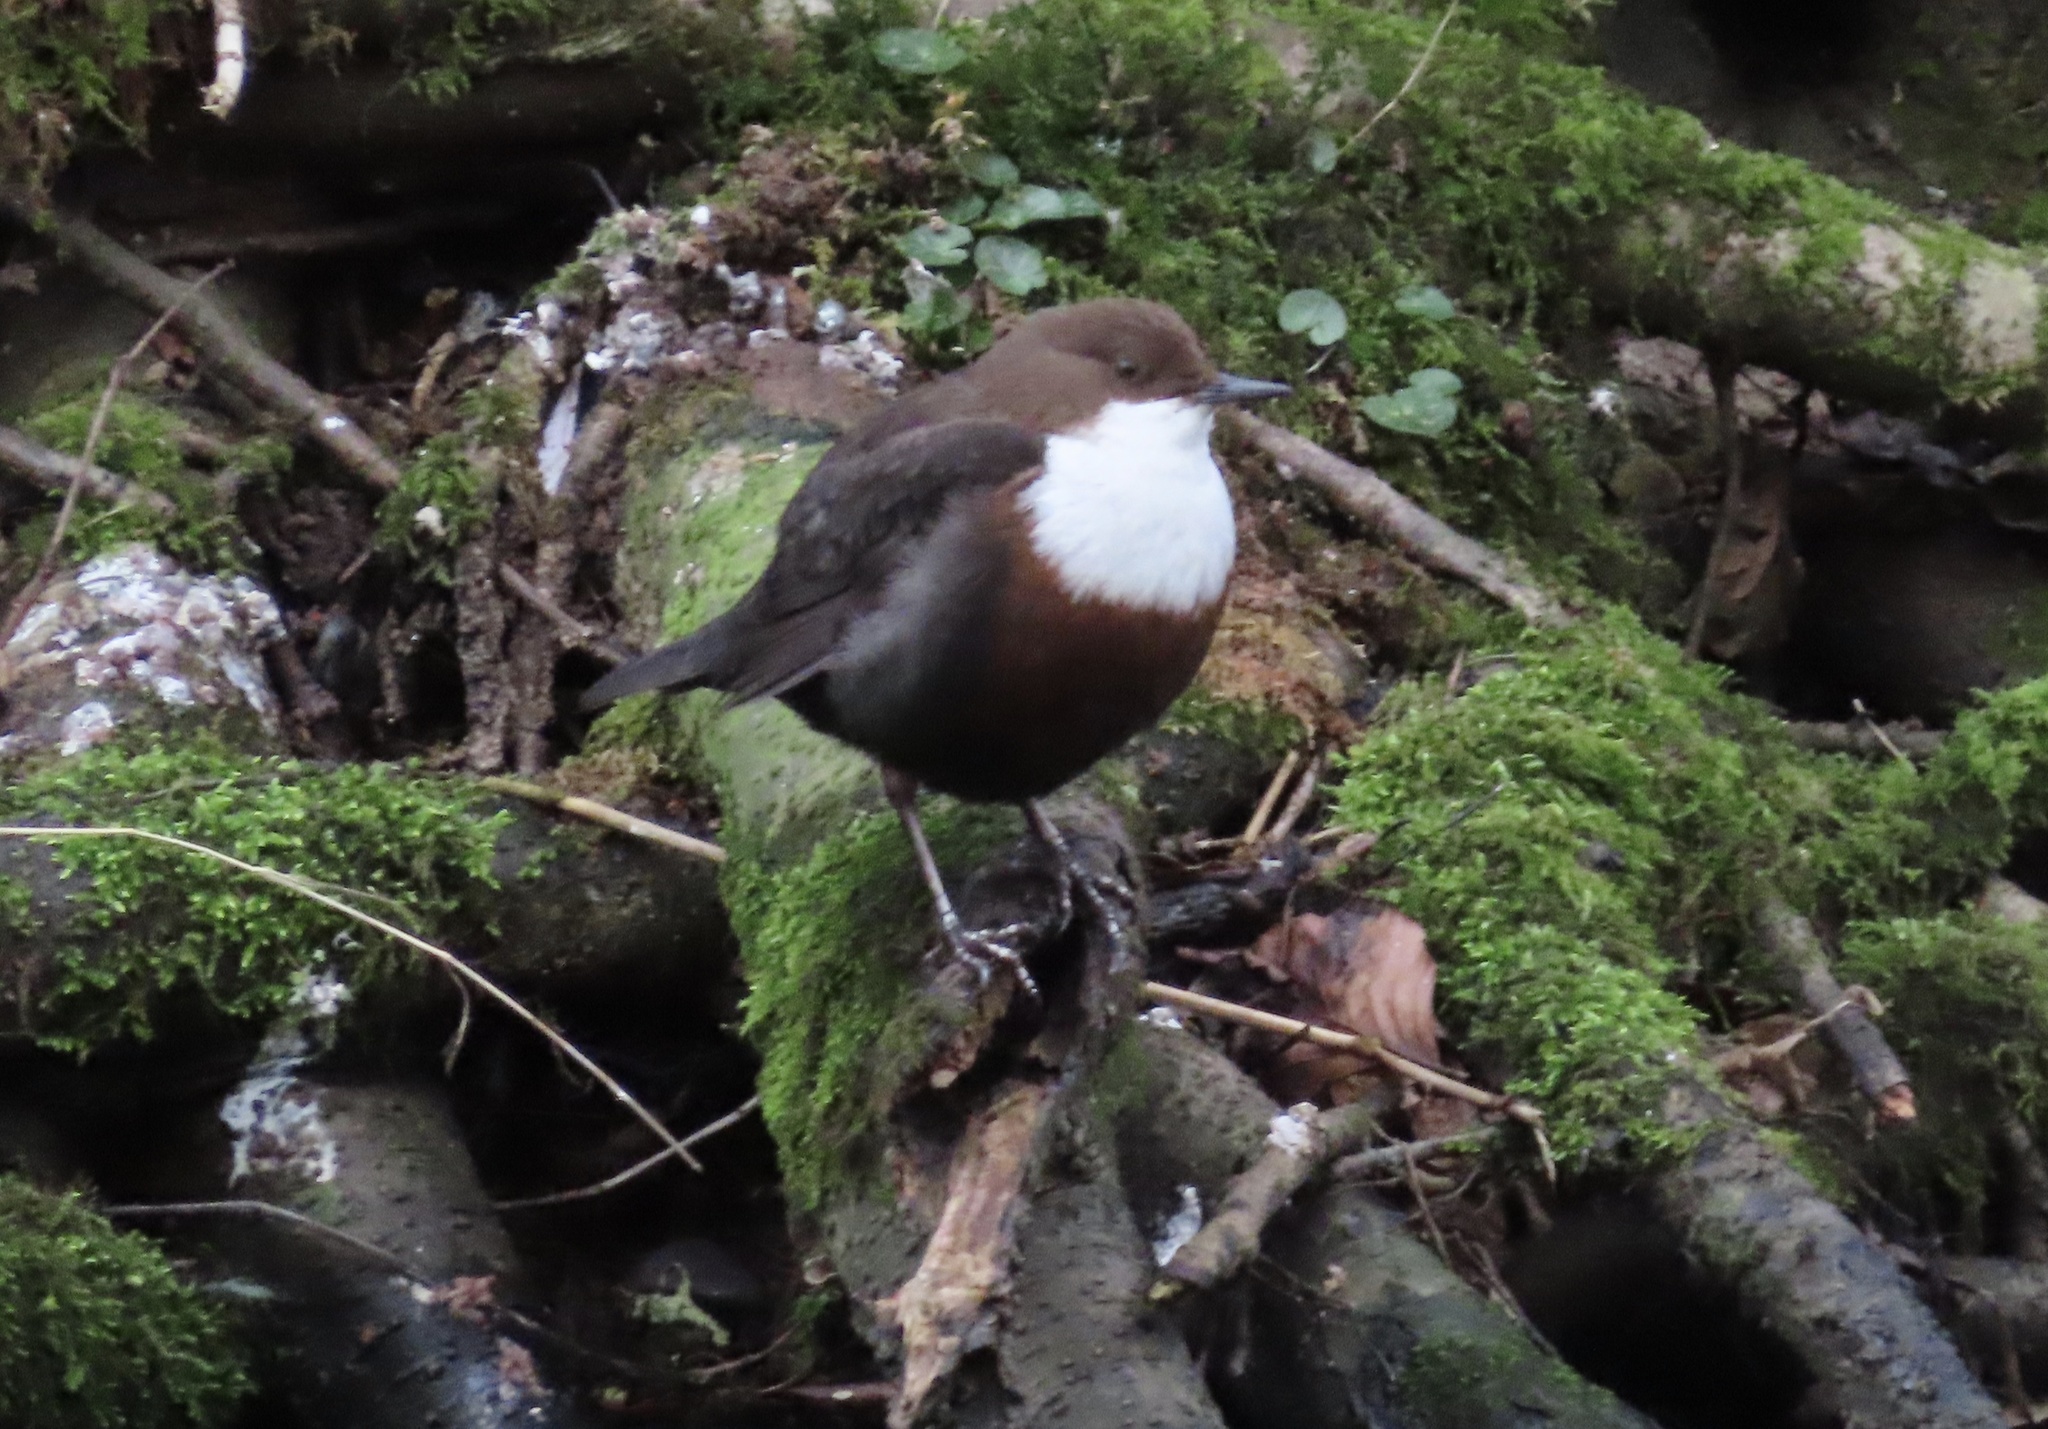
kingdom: Animalia
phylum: Chordata
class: Aves
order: Passeriformes
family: Cinclidae
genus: Cinclus
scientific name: Cinclus cinclus
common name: White-throated dipper
